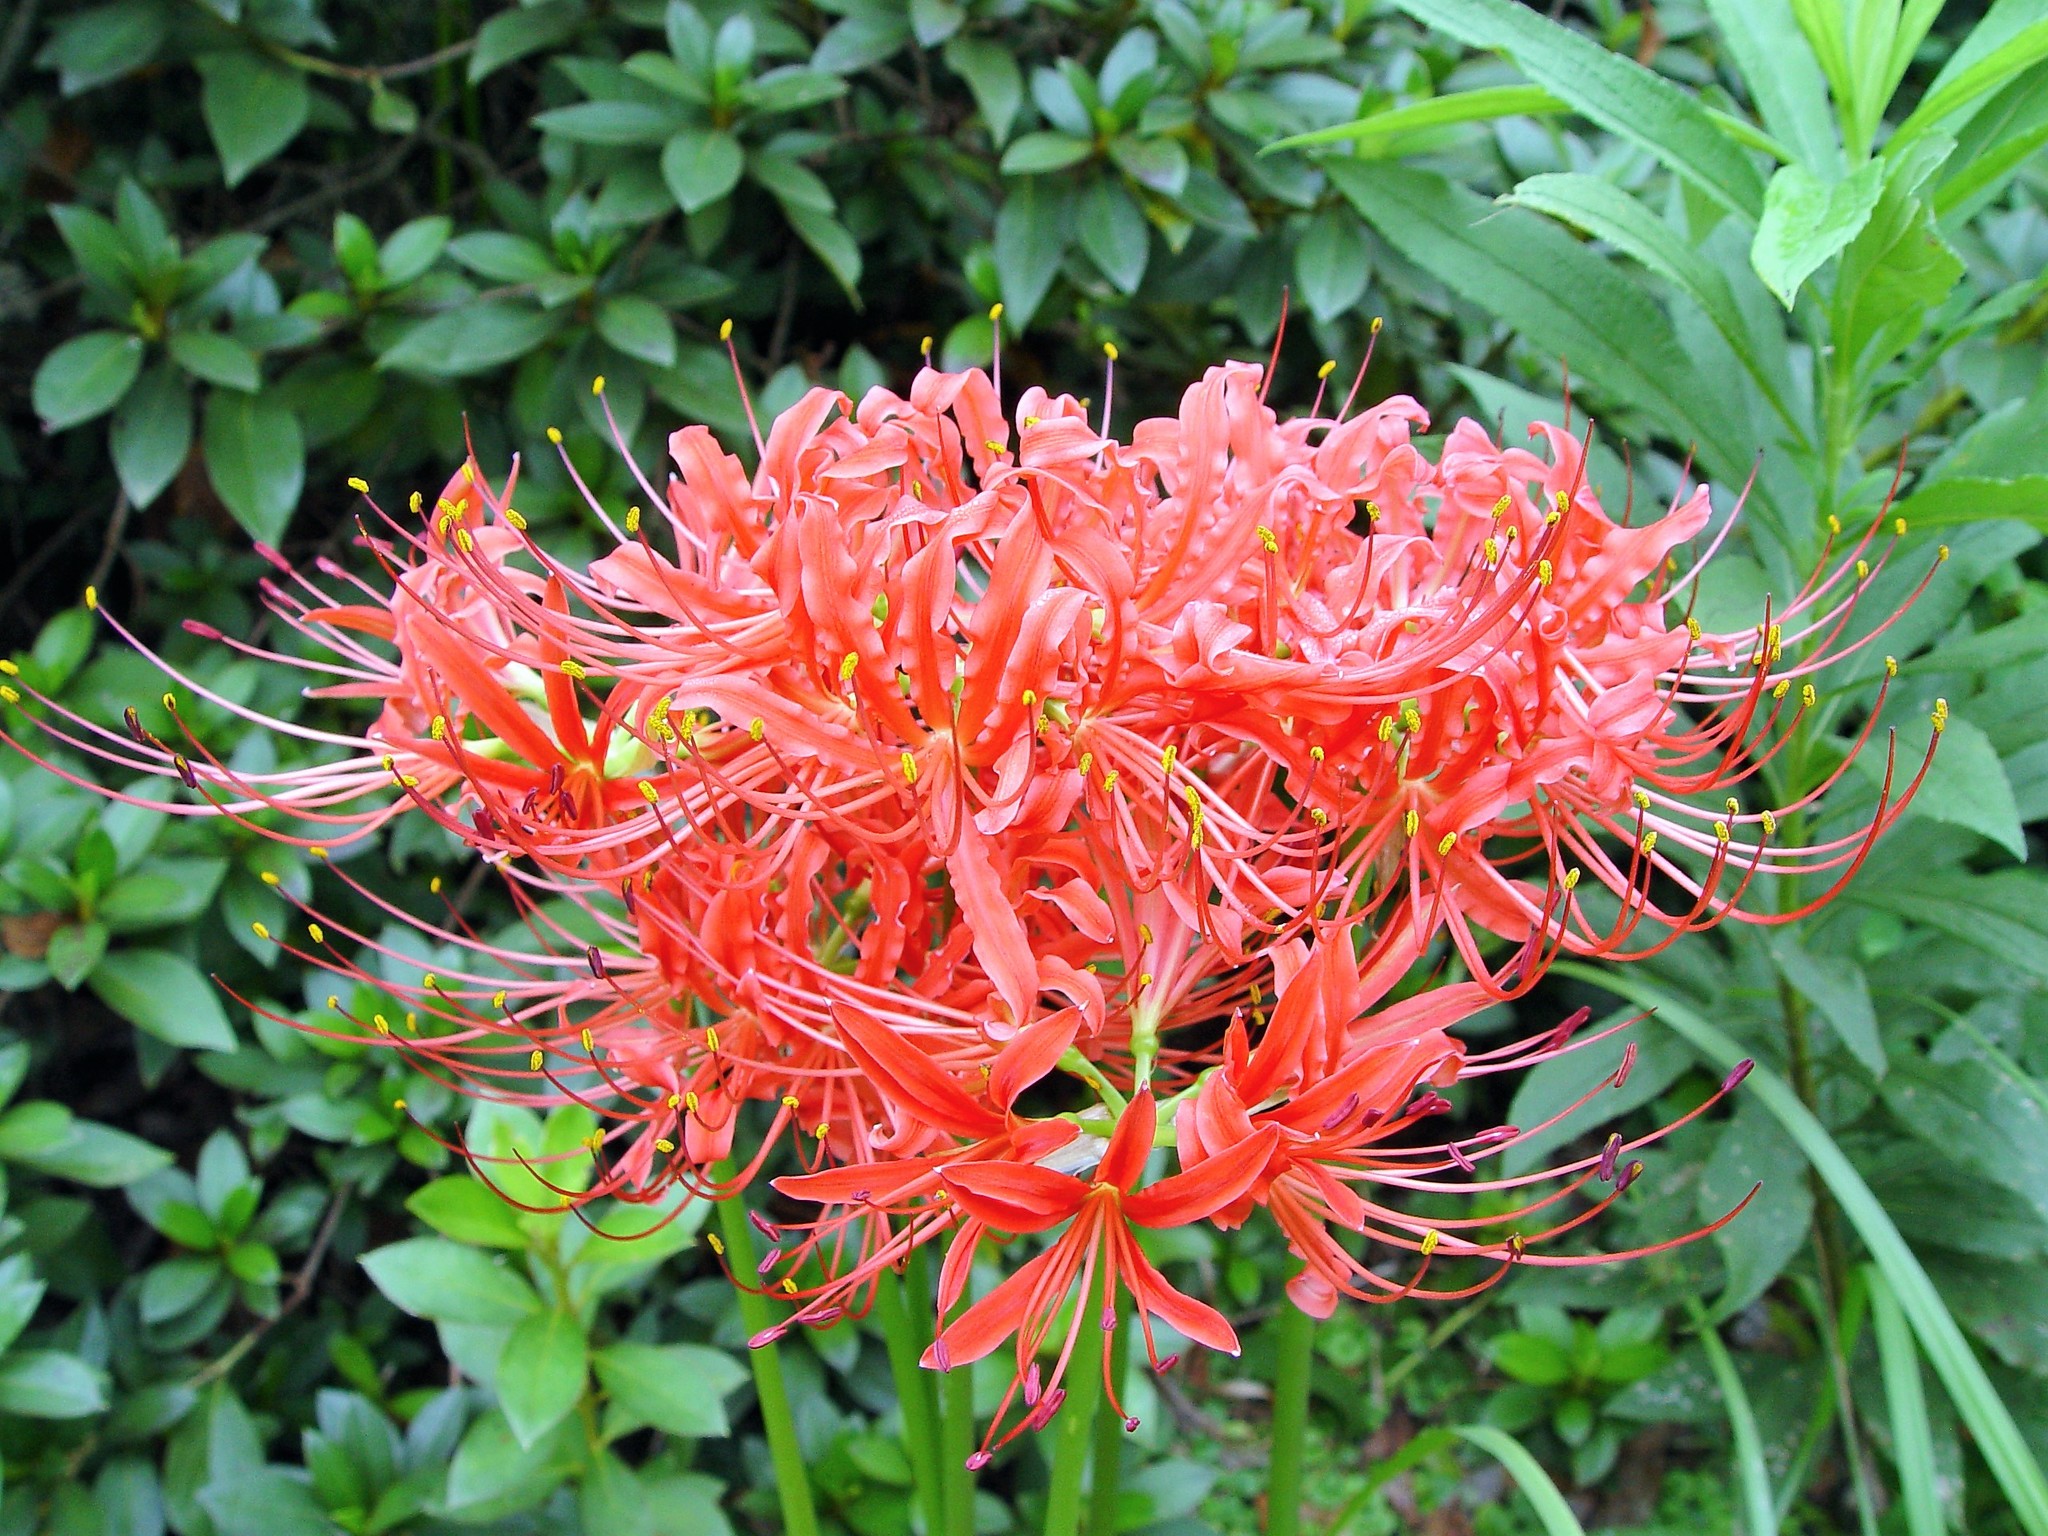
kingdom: Plantae
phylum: Tracheophyta
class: Liliopsida
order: Asparagales
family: Amaryllidaceae
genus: Lycoris
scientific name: Lycoris radiata
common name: Red spider lily
